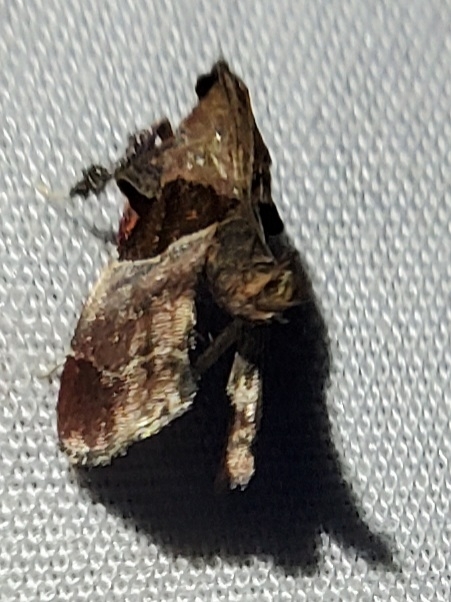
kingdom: Animalia
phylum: Arthropoda
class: Insecta
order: Lepidoptera
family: Pyralidae
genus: Tosale
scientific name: Tosale oviplagalis
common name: Dimorphic tosale moth
